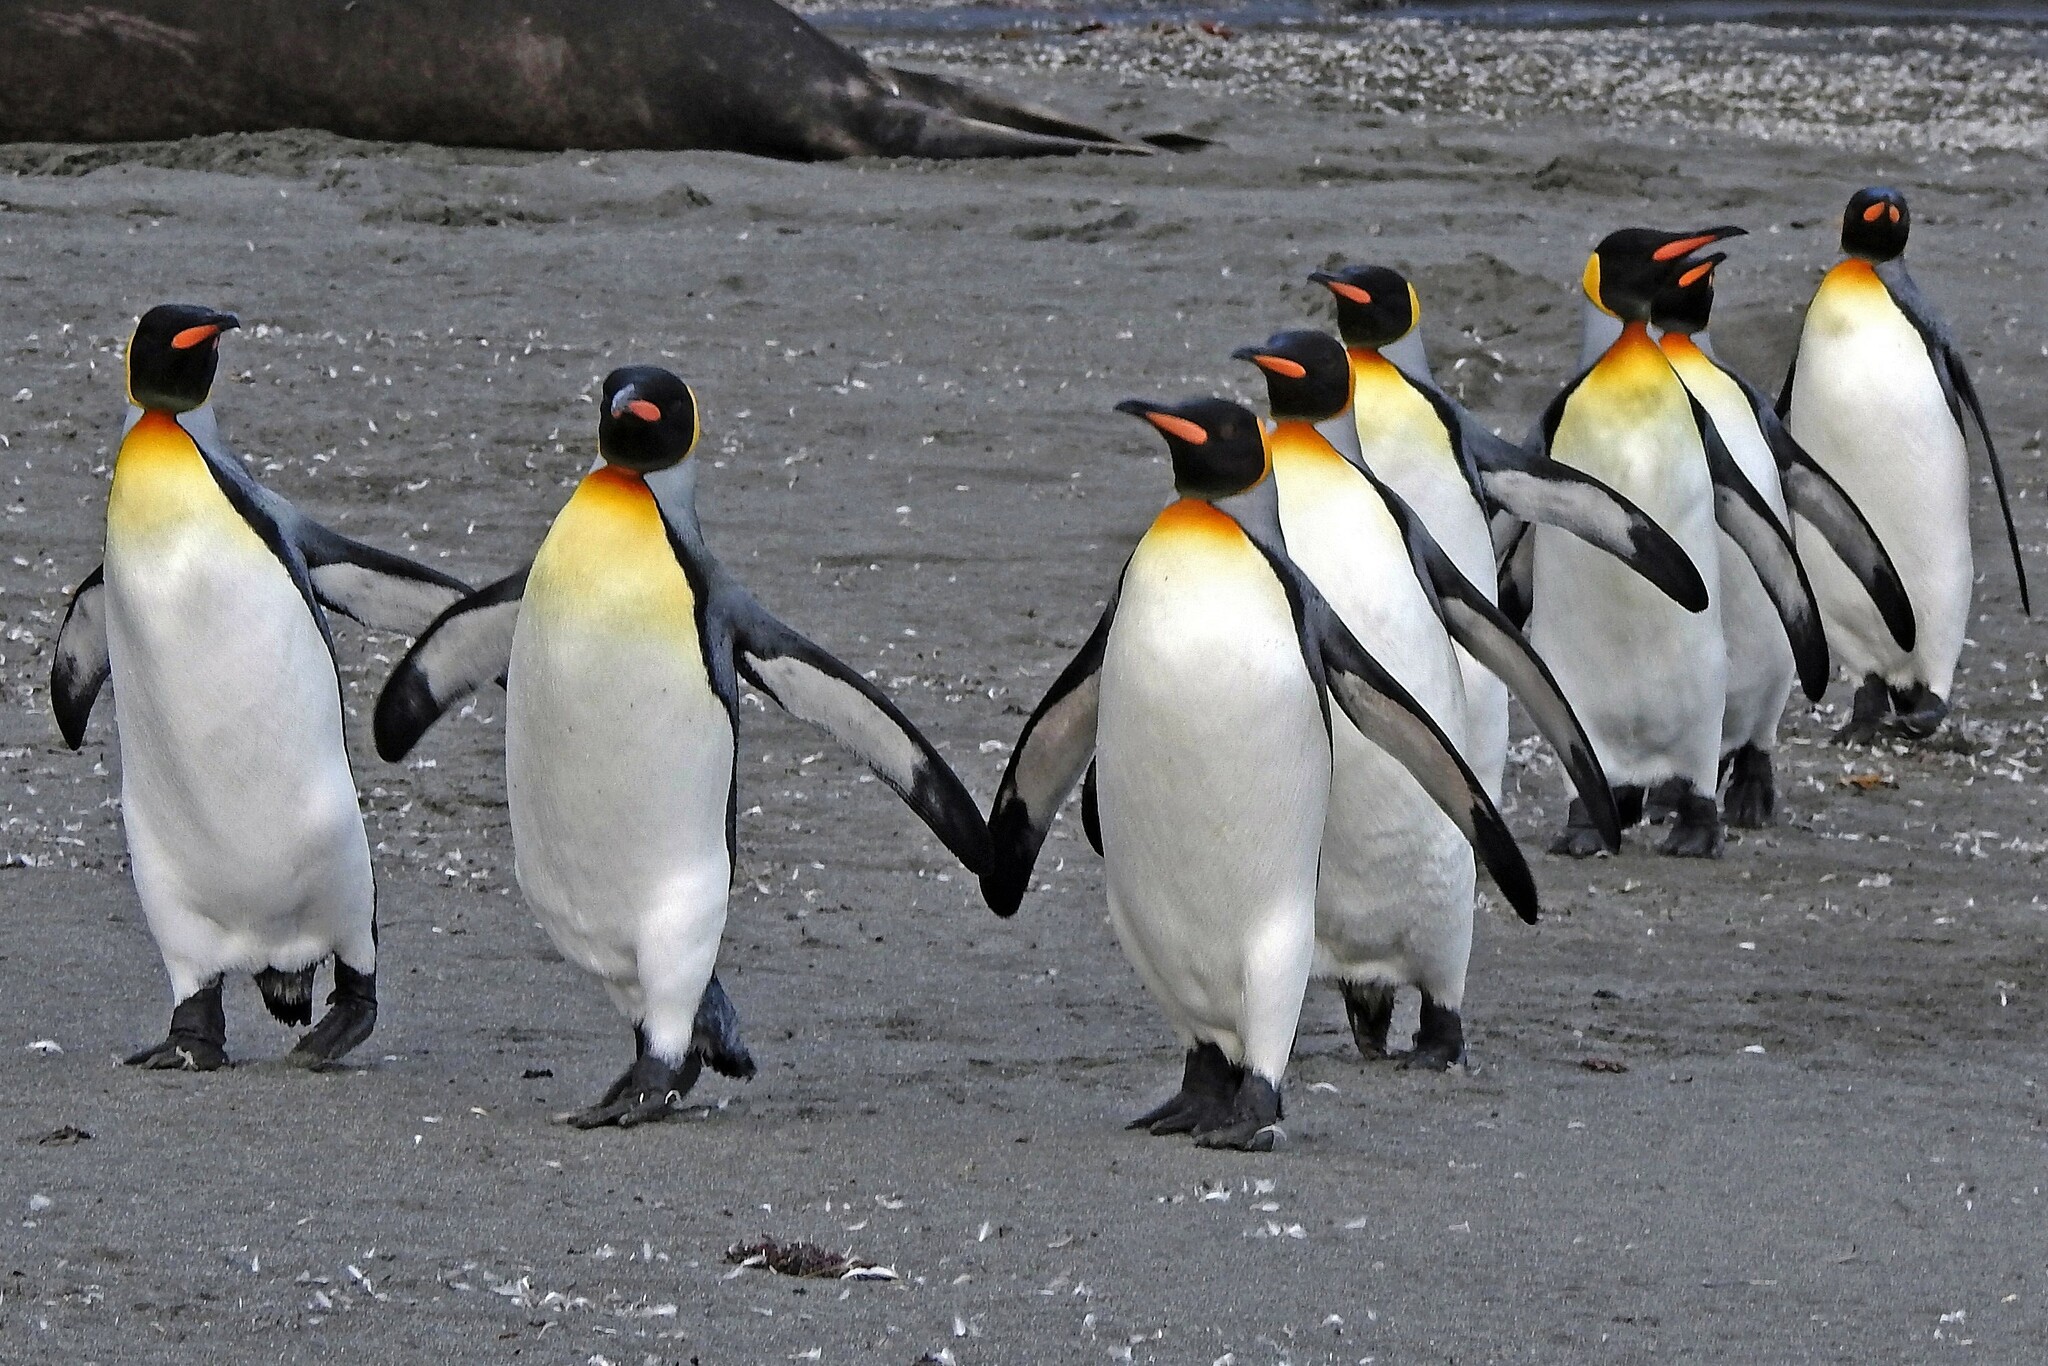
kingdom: Animalia
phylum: Chordata
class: Aves
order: Sphenisciformes
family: Spheniscidae
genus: Aptenodytes
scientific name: Aptenodytes patagonicus
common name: King penguin
